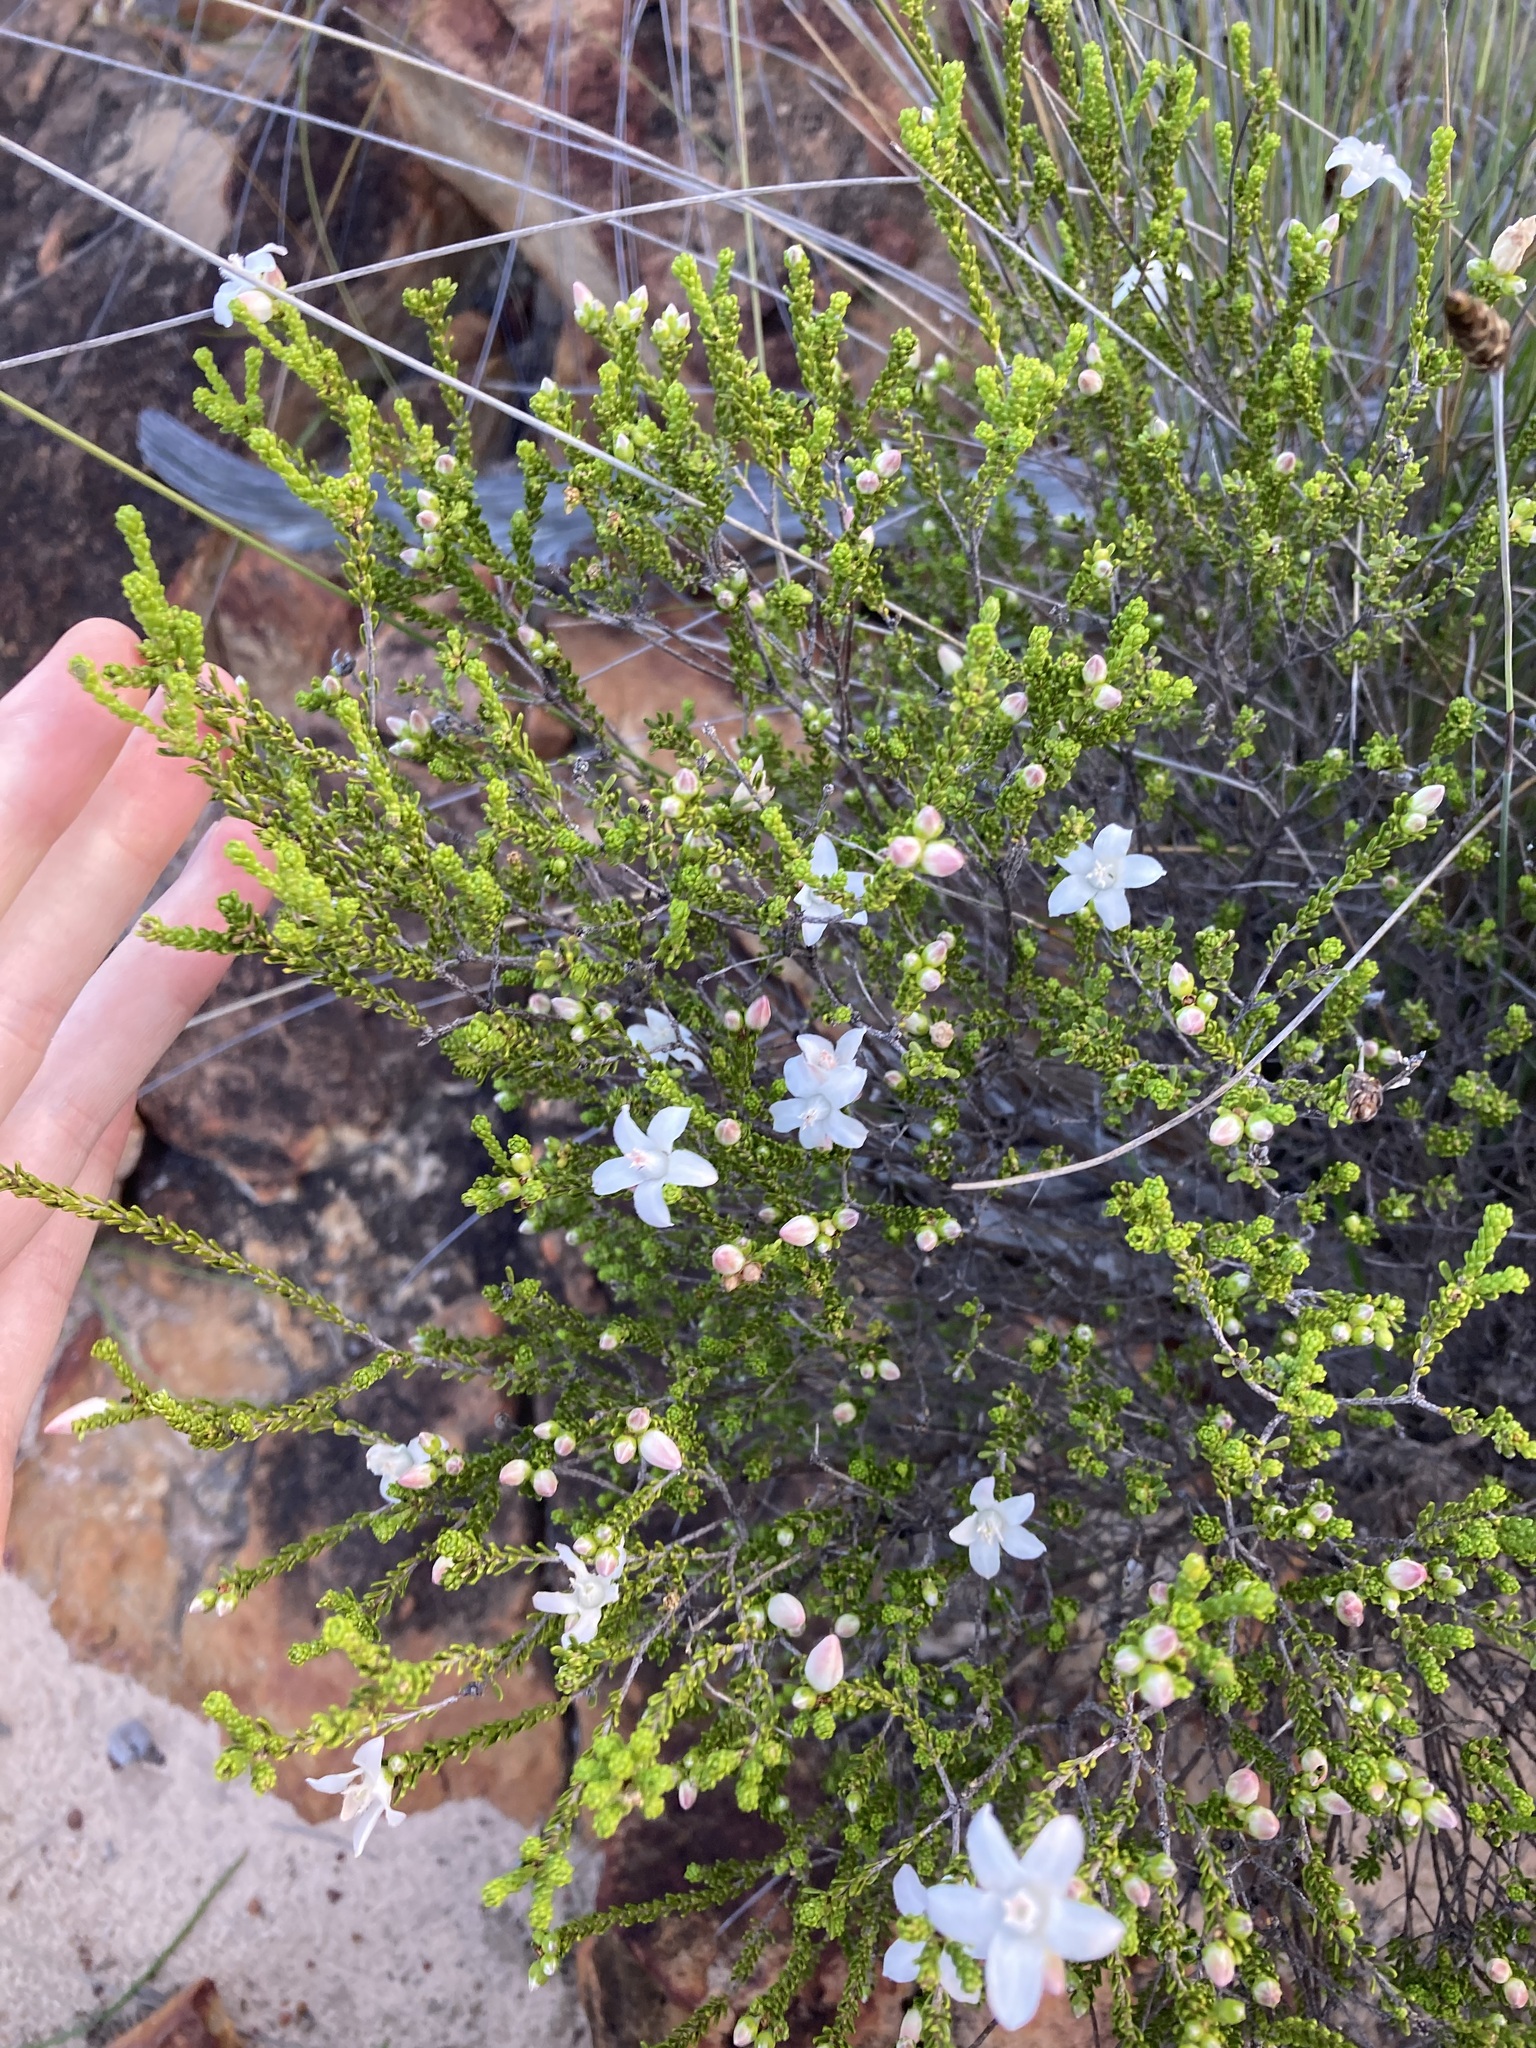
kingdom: Plantae
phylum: Tracheophyta
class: Magnoliopsida
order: Sapindales
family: Rutaceae
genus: Philotheca
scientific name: Philotheca sericea
